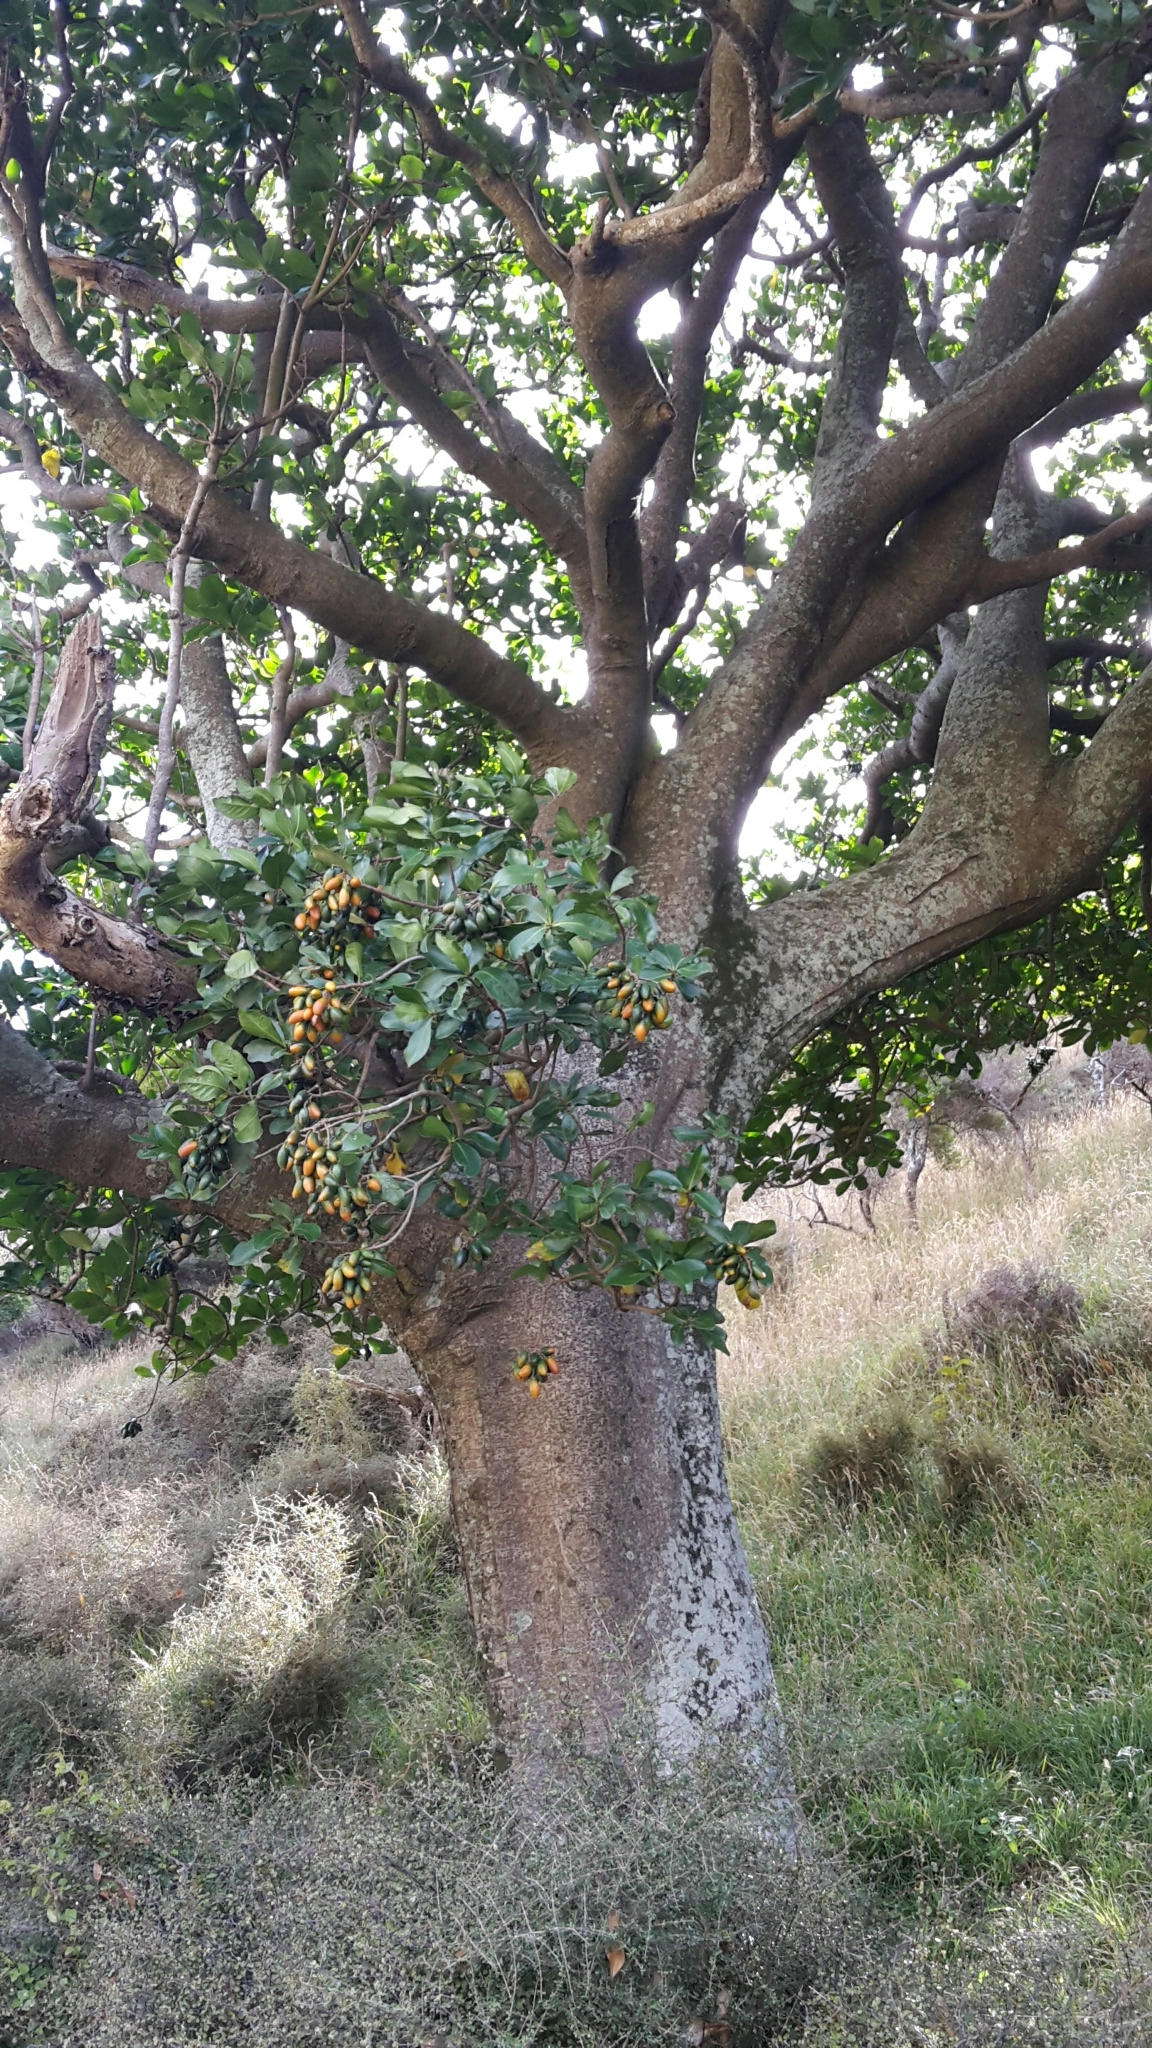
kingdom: Plantae
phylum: Tracheophyta
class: Magnoliopsida
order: Cucurbitales
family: Corynocarpaceae
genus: Corynocarpus
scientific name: Corynocarpus laevigatus
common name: New zealand laurel
